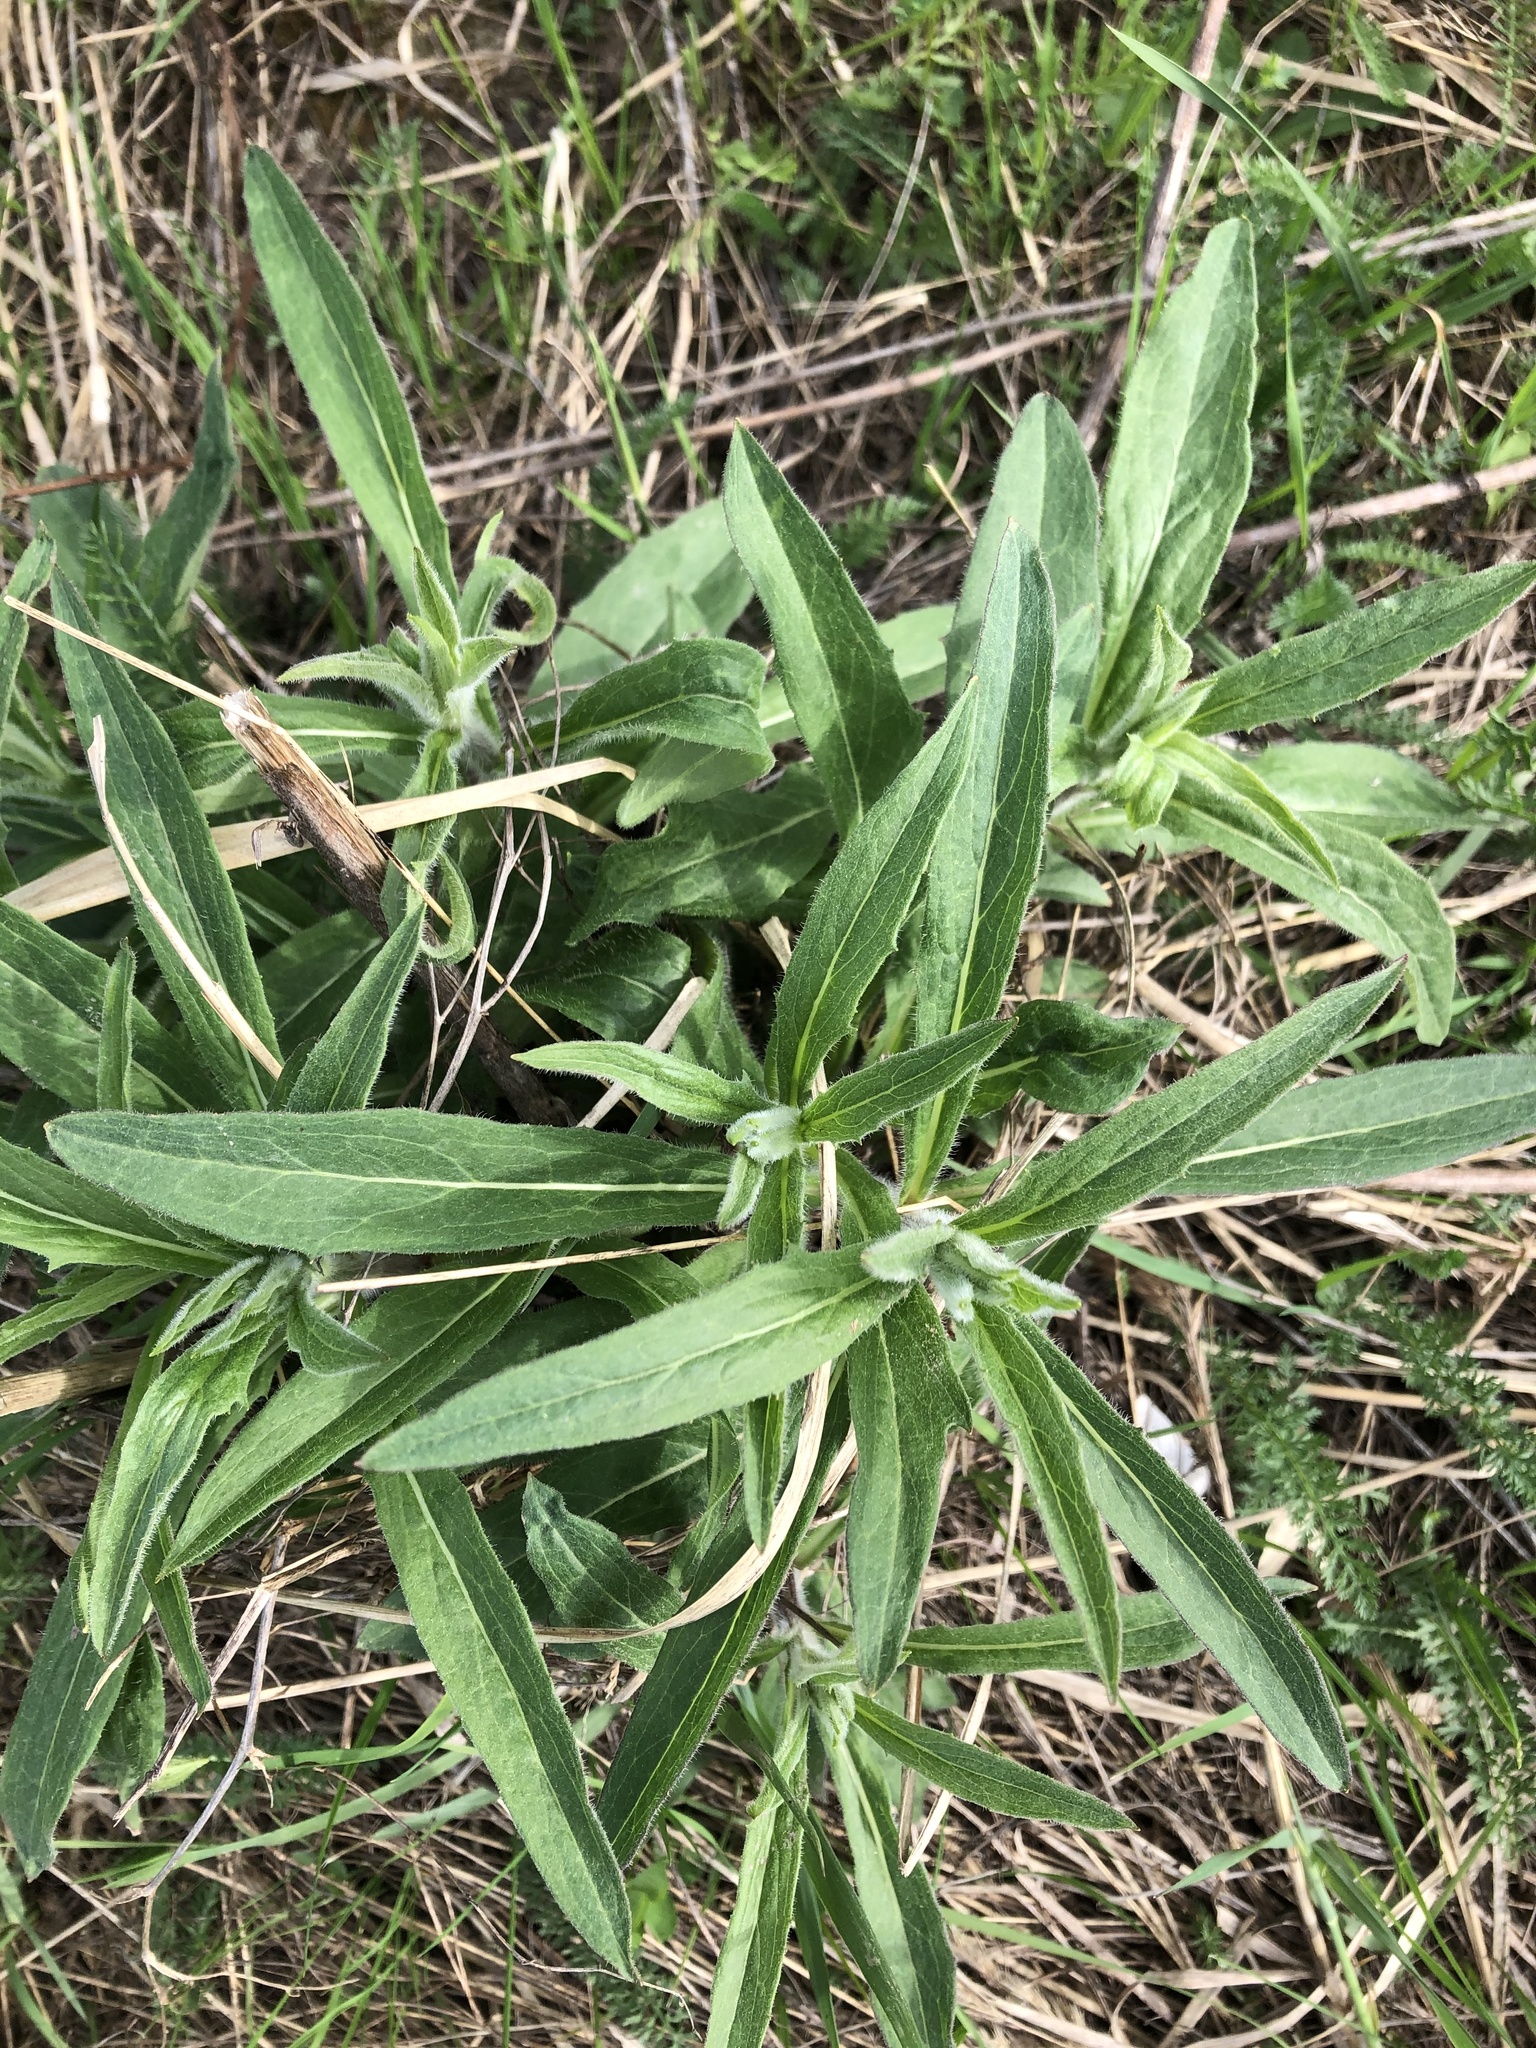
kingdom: Plantae
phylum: Tracheophyta
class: Magnoliopsida
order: Asterales
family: Asteraceae
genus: Hieracium
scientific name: Hieracium umbellatum
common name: Northern hawkweed
